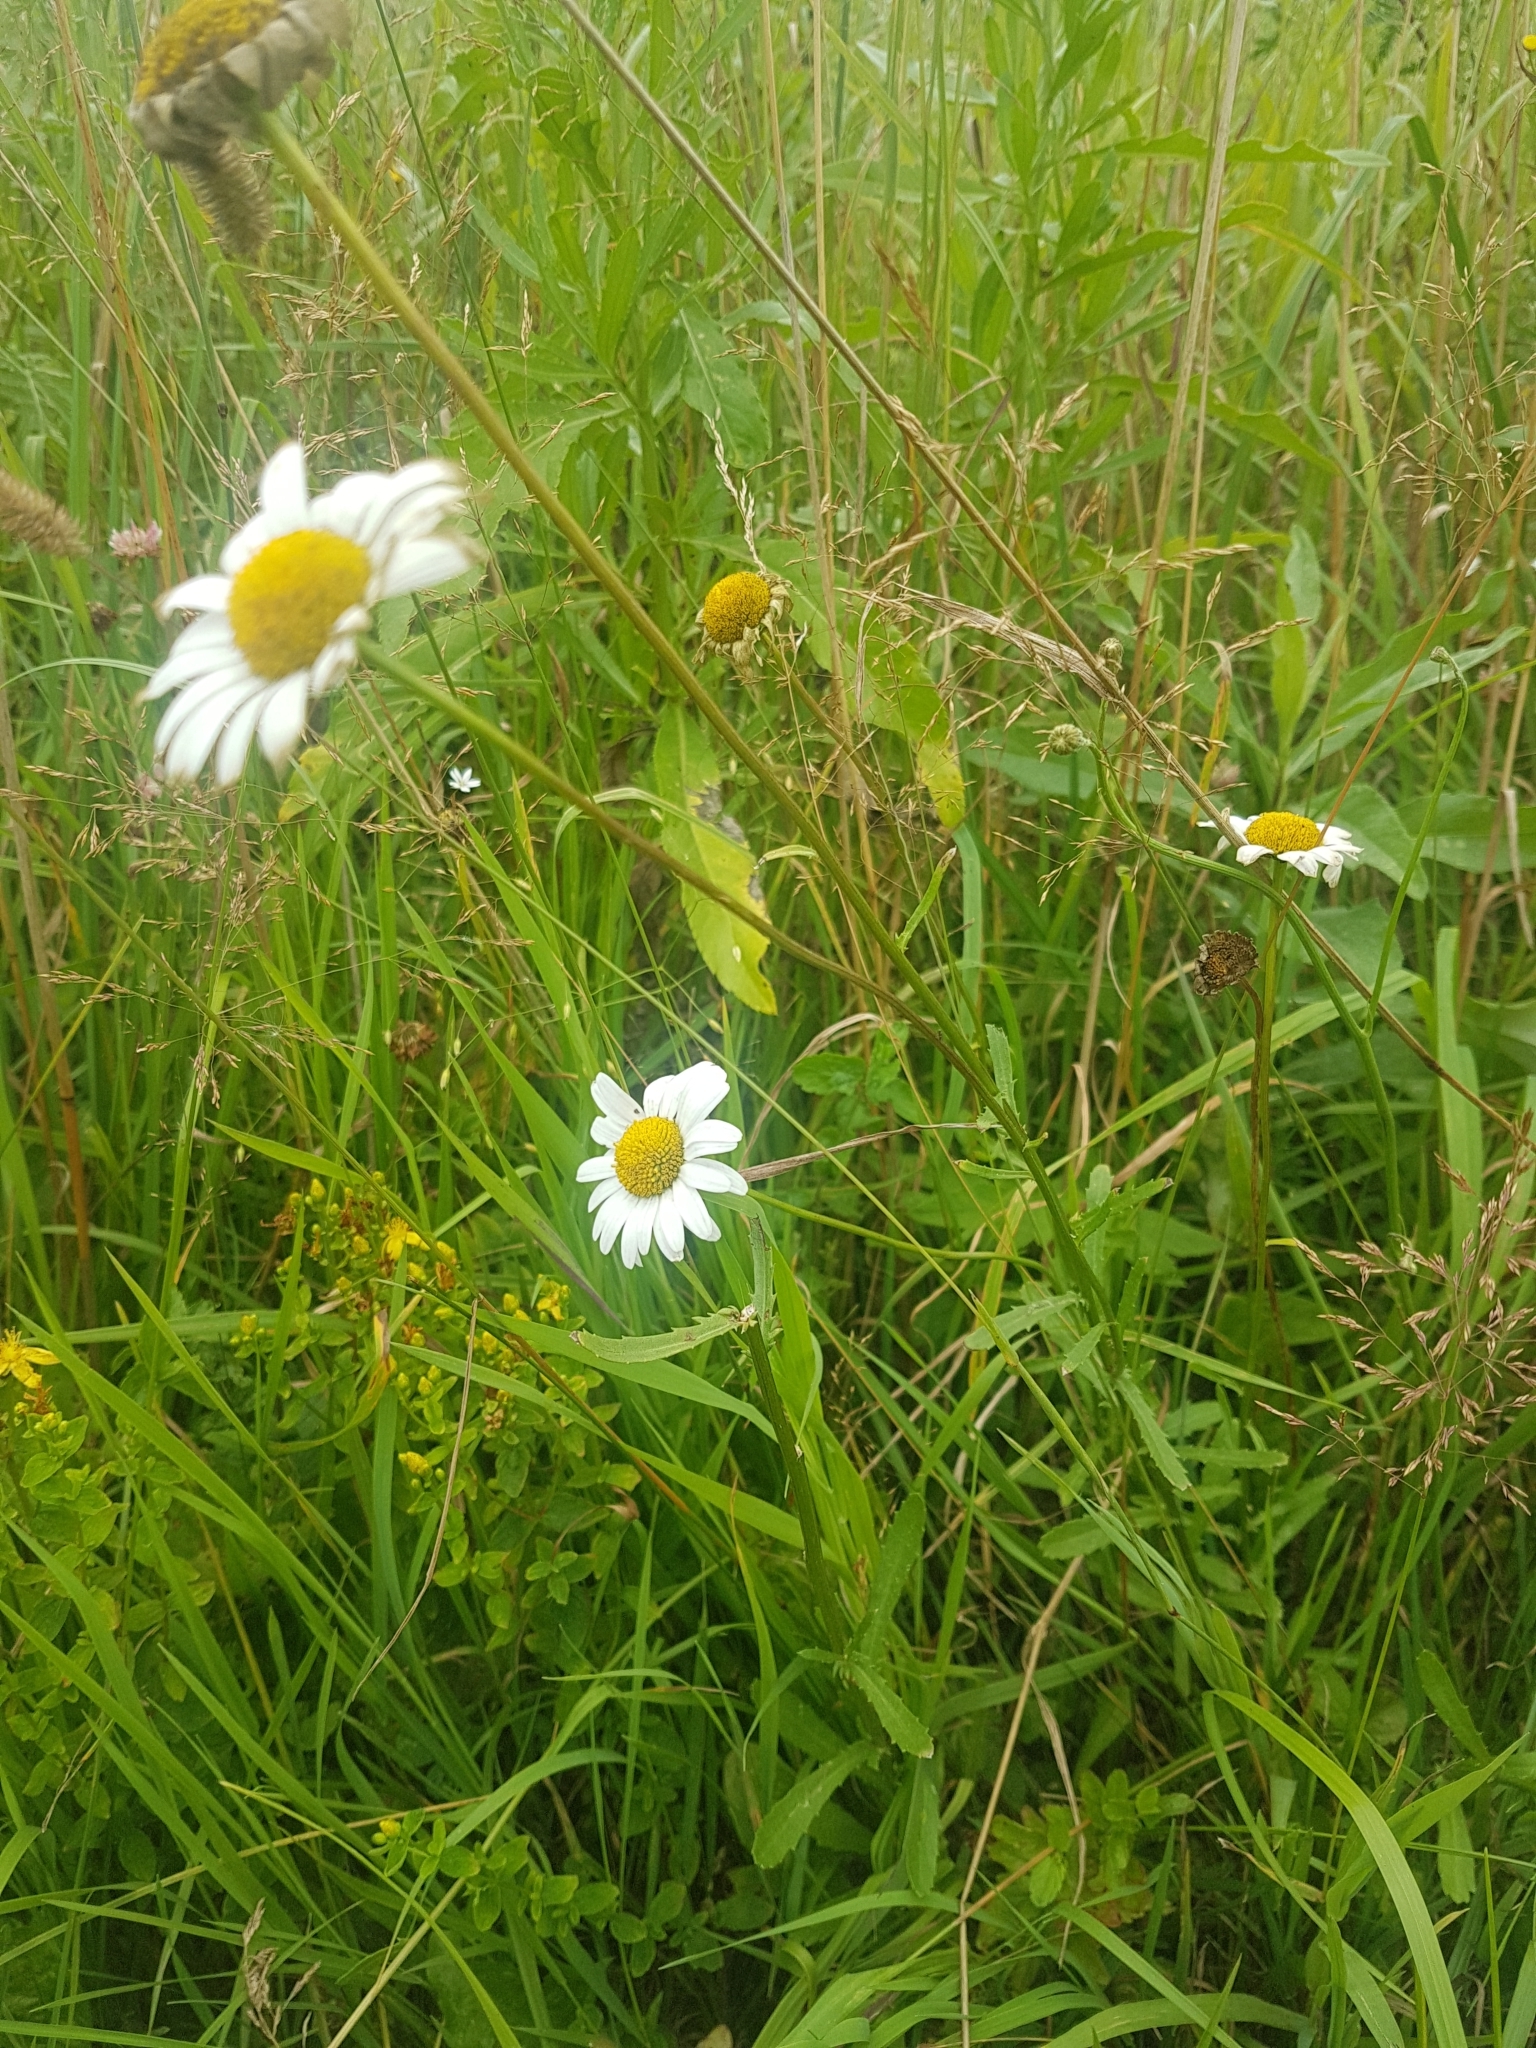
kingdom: Plantae
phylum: Tracheophyta
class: Magnoliopsida
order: Asterales
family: Asteraceae
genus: Leucanthemum
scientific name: Leucanthemum vulgare
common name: Oxeye daisy
